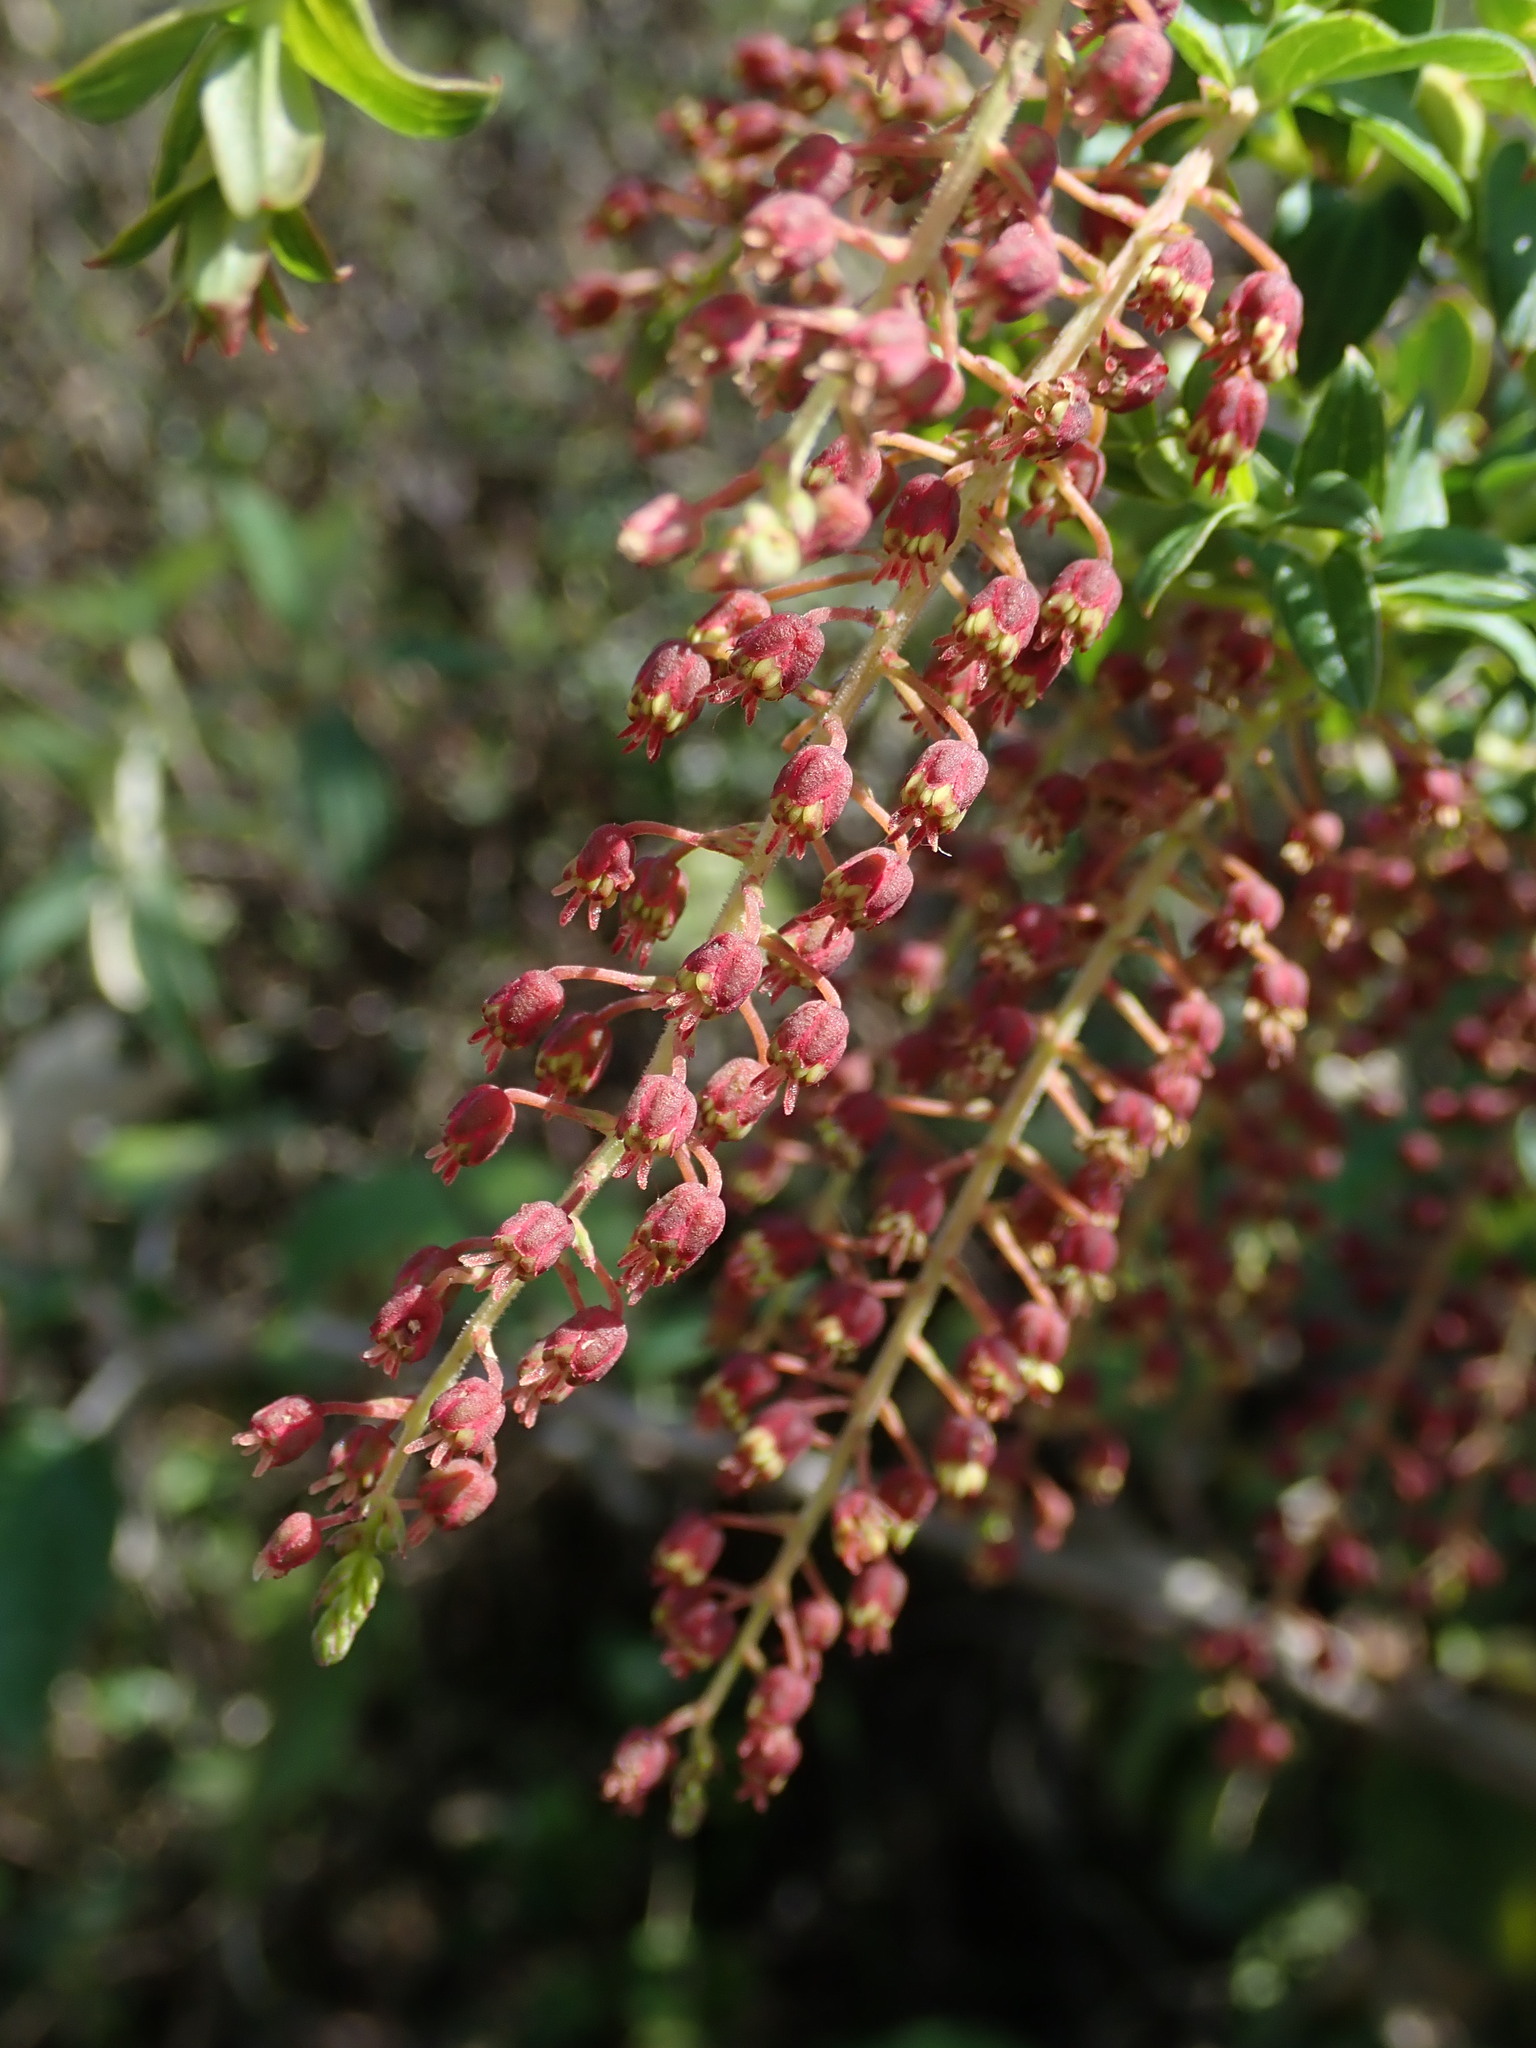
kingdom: Plantae
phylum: Tracheophyta
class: Magnoliopsida
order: Cucurbitales
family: Coriariaceae
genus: Coriaria
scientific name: Coriaria ruscifolia
